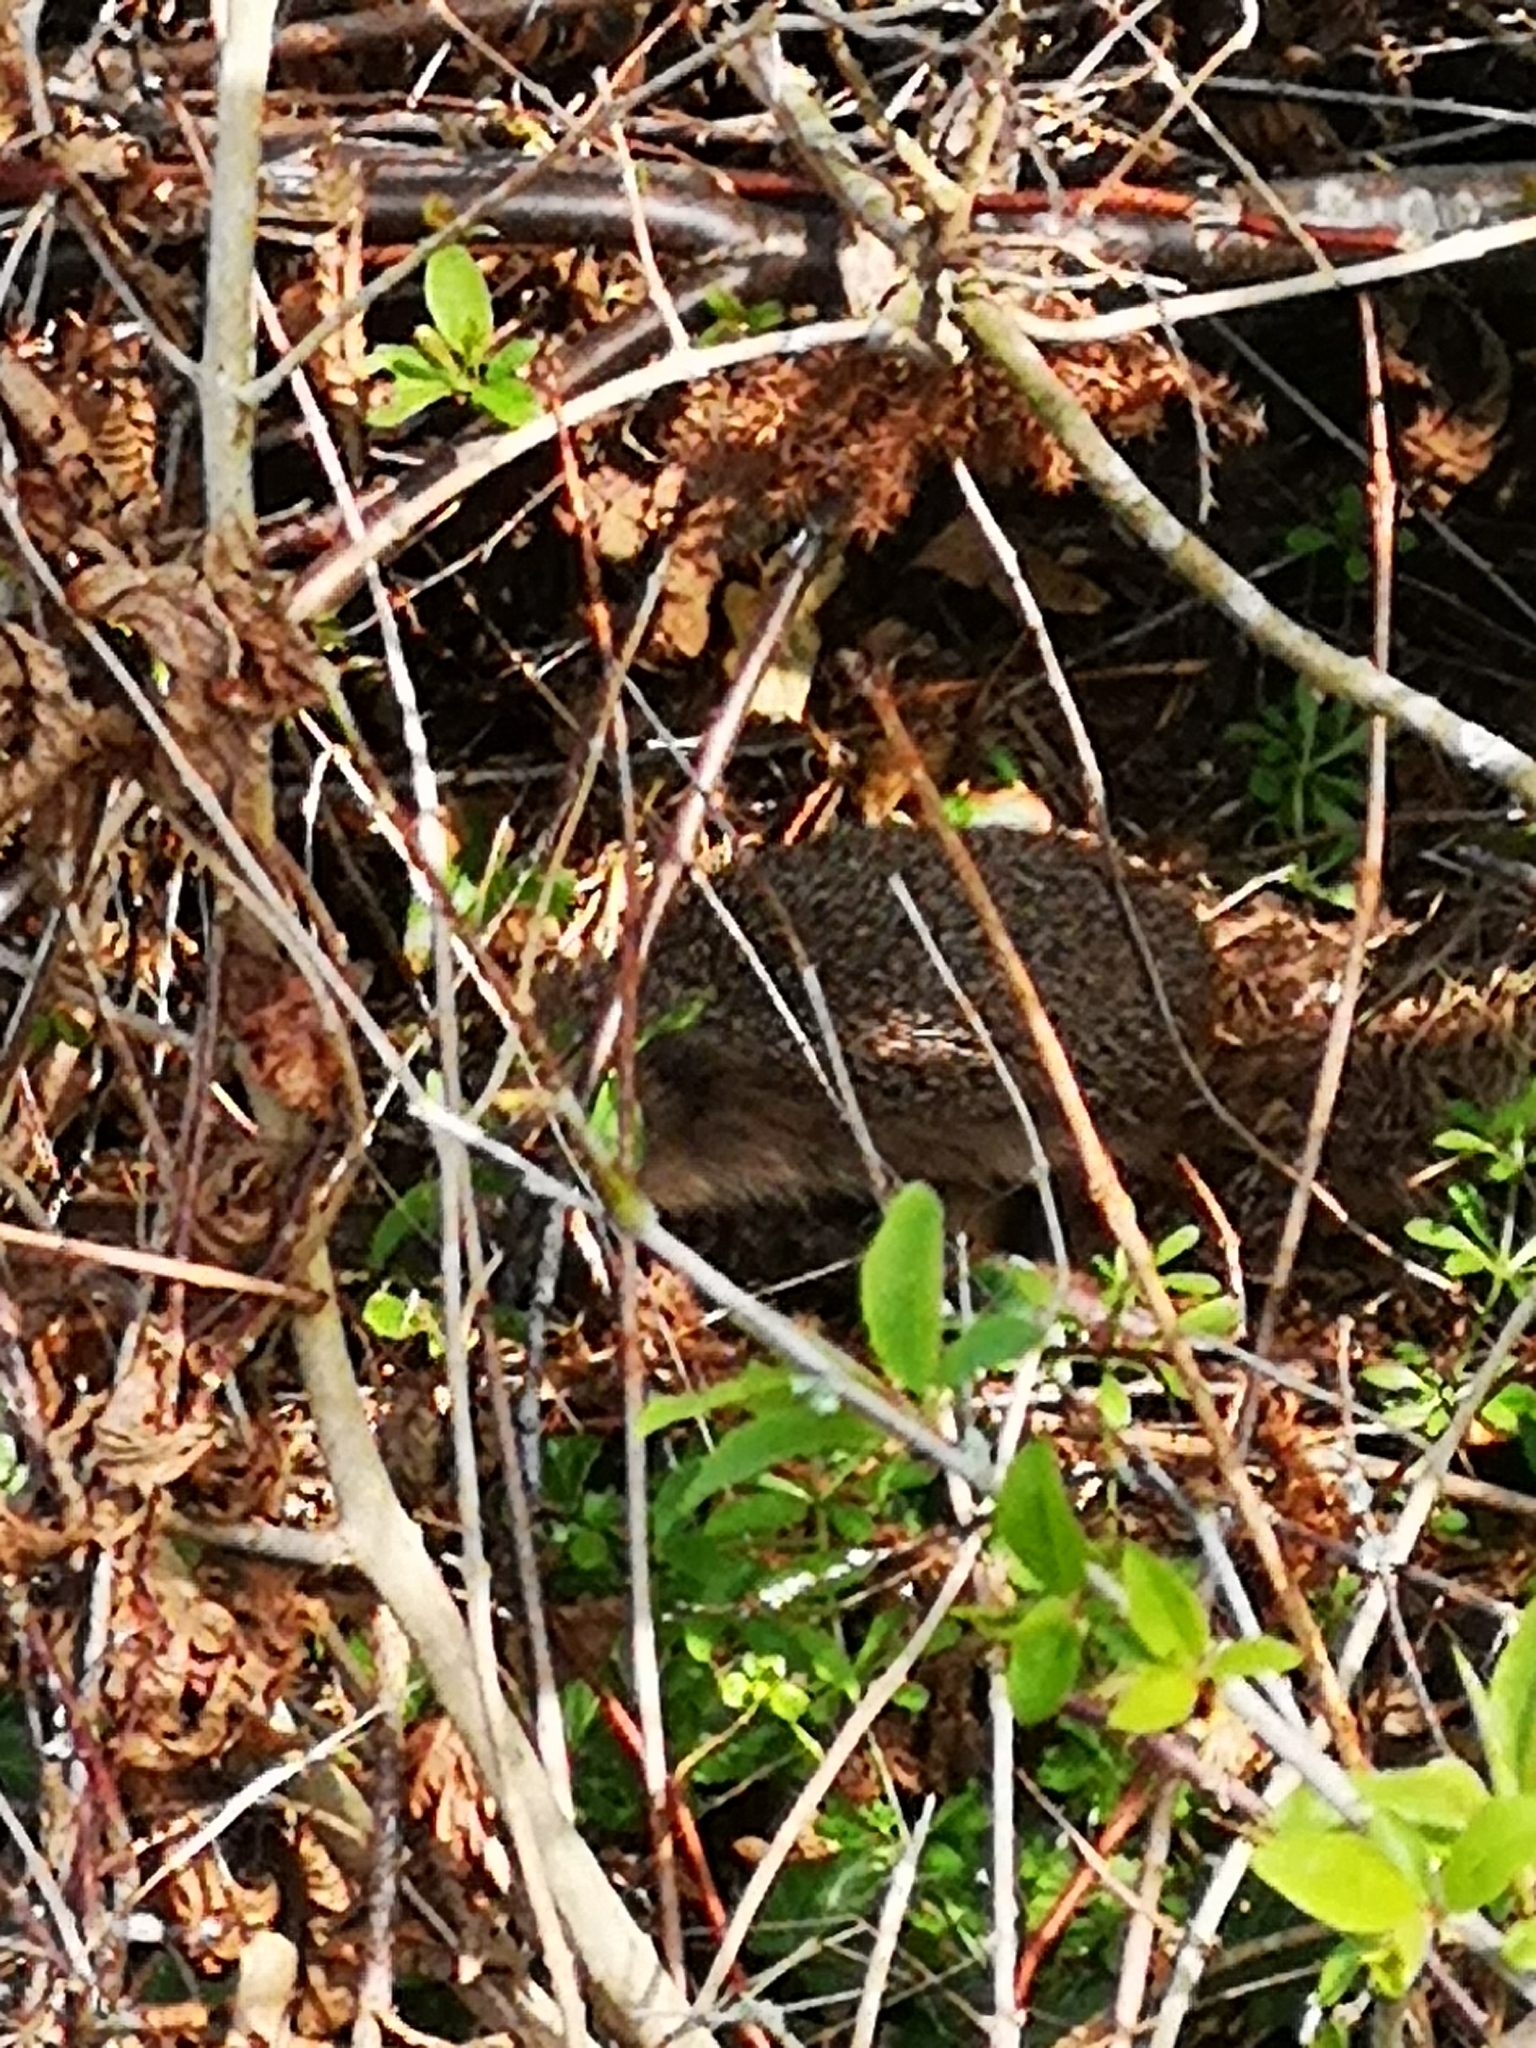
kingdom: Animalia
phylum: Chordata
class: Mammalia
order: Erinaceomorpha
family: Erinaceidae
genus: Erinaceus
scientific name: Erinaceus europaeus
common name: West european hedgehog
